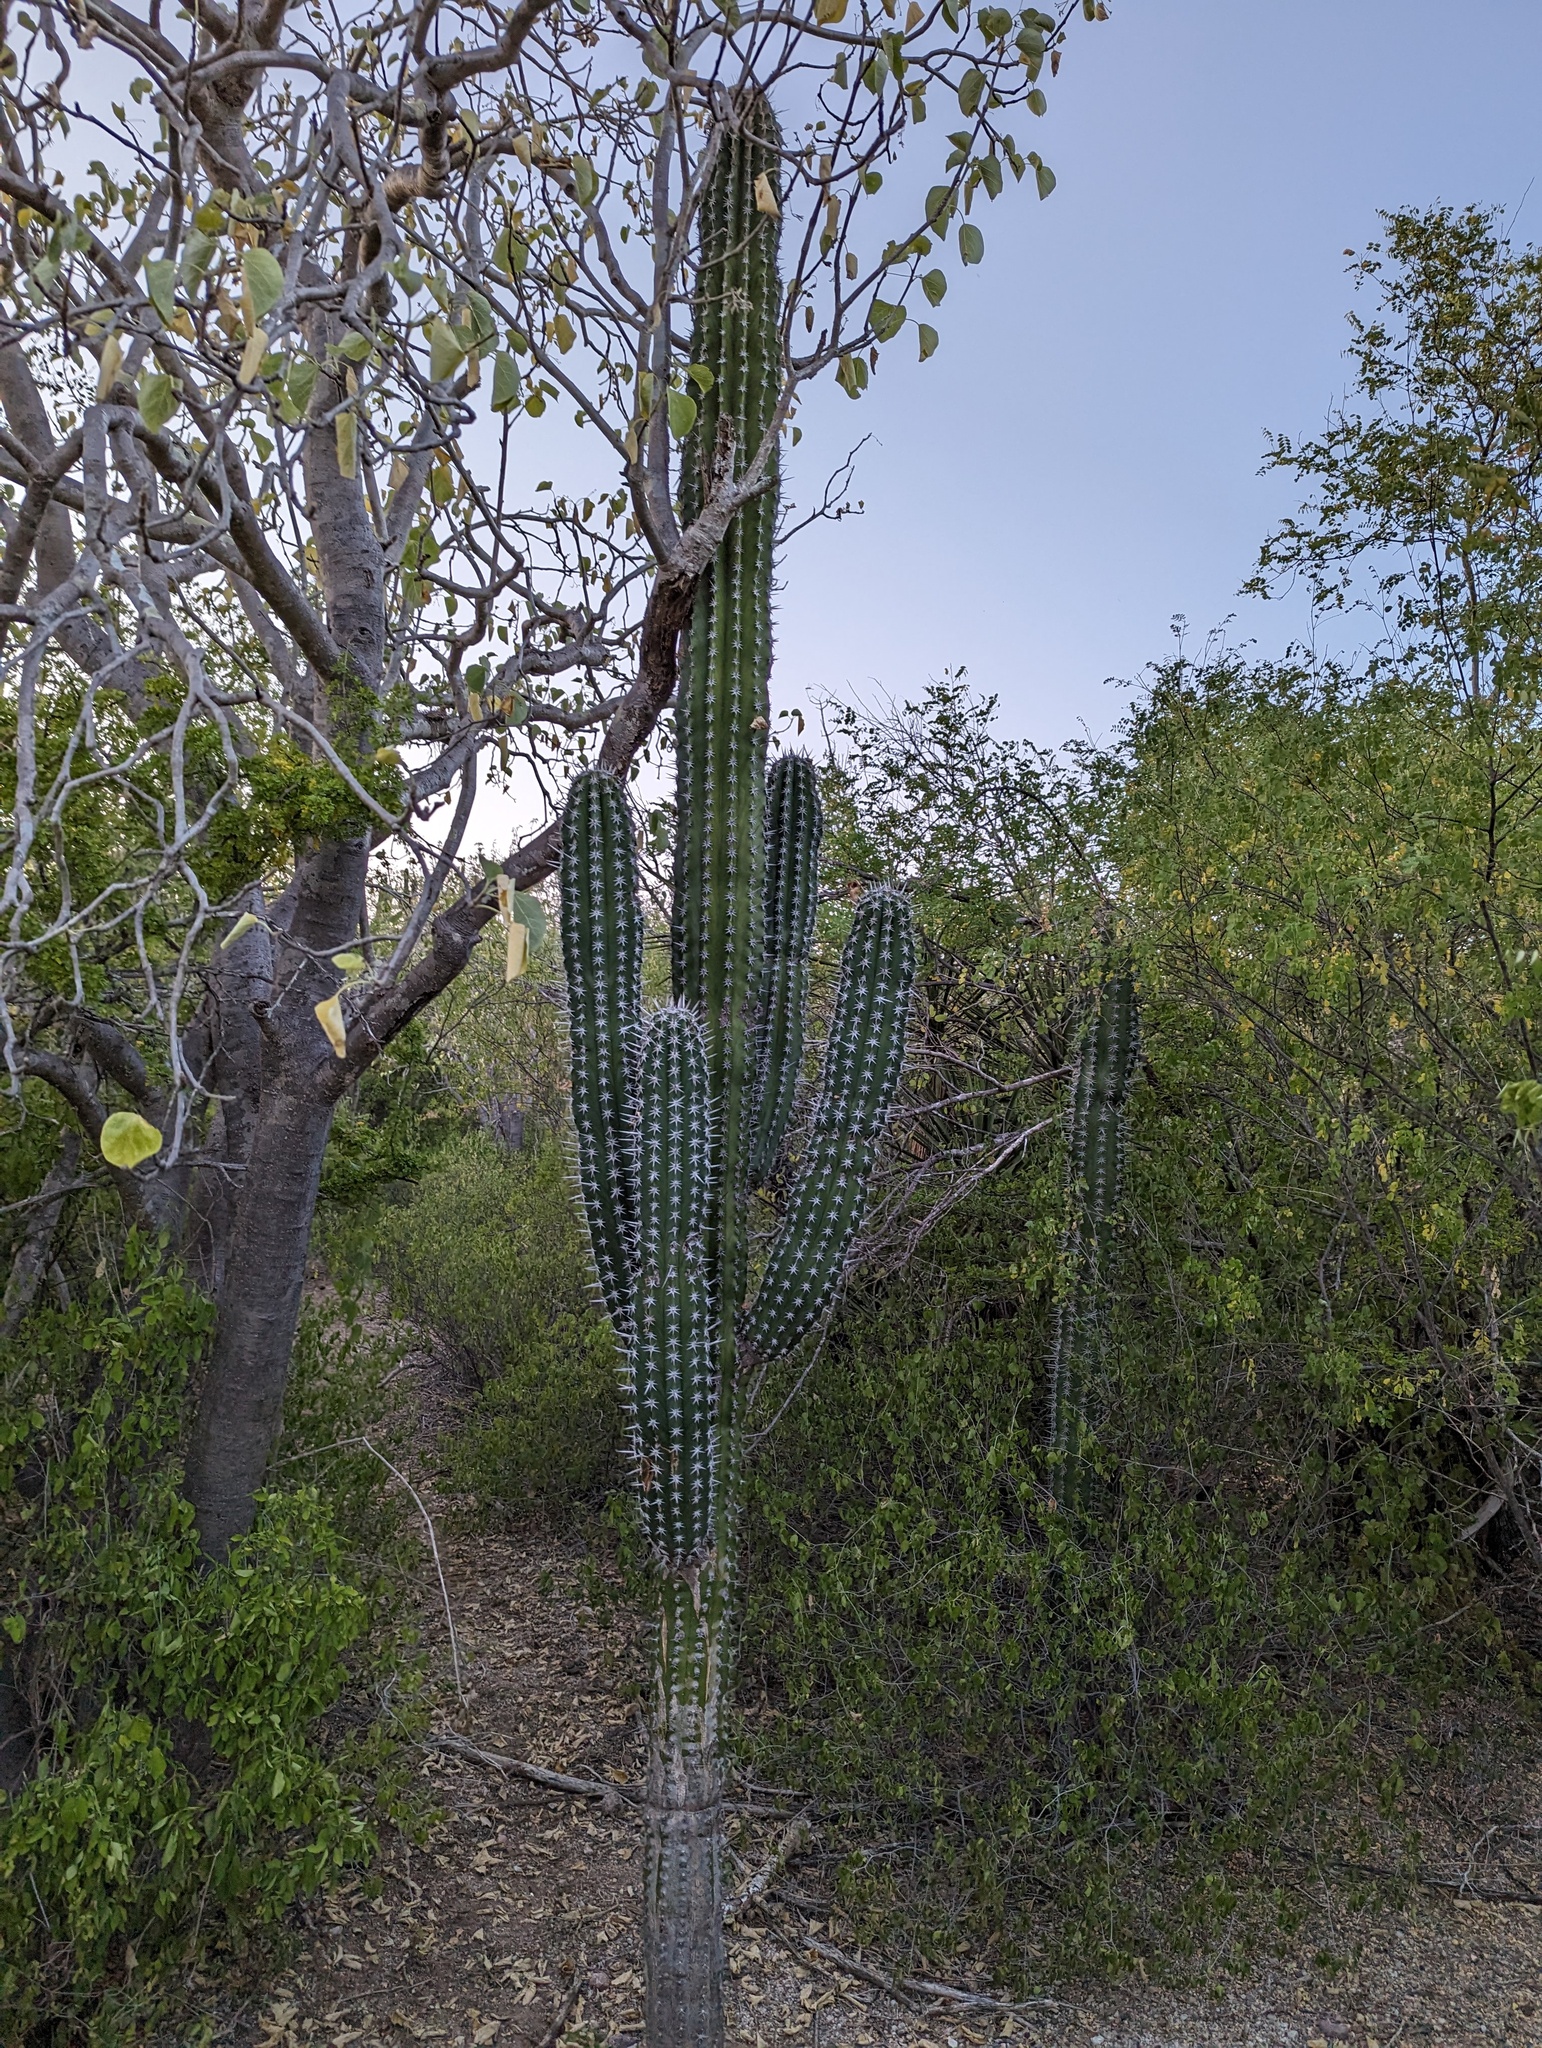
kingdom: Plantae
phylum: Tracheophyta
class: Magnoliopsida
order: Caryophyllales
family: Cactaceae
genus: Pachycereus
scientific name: Pachycereus pecten-aboriginum
